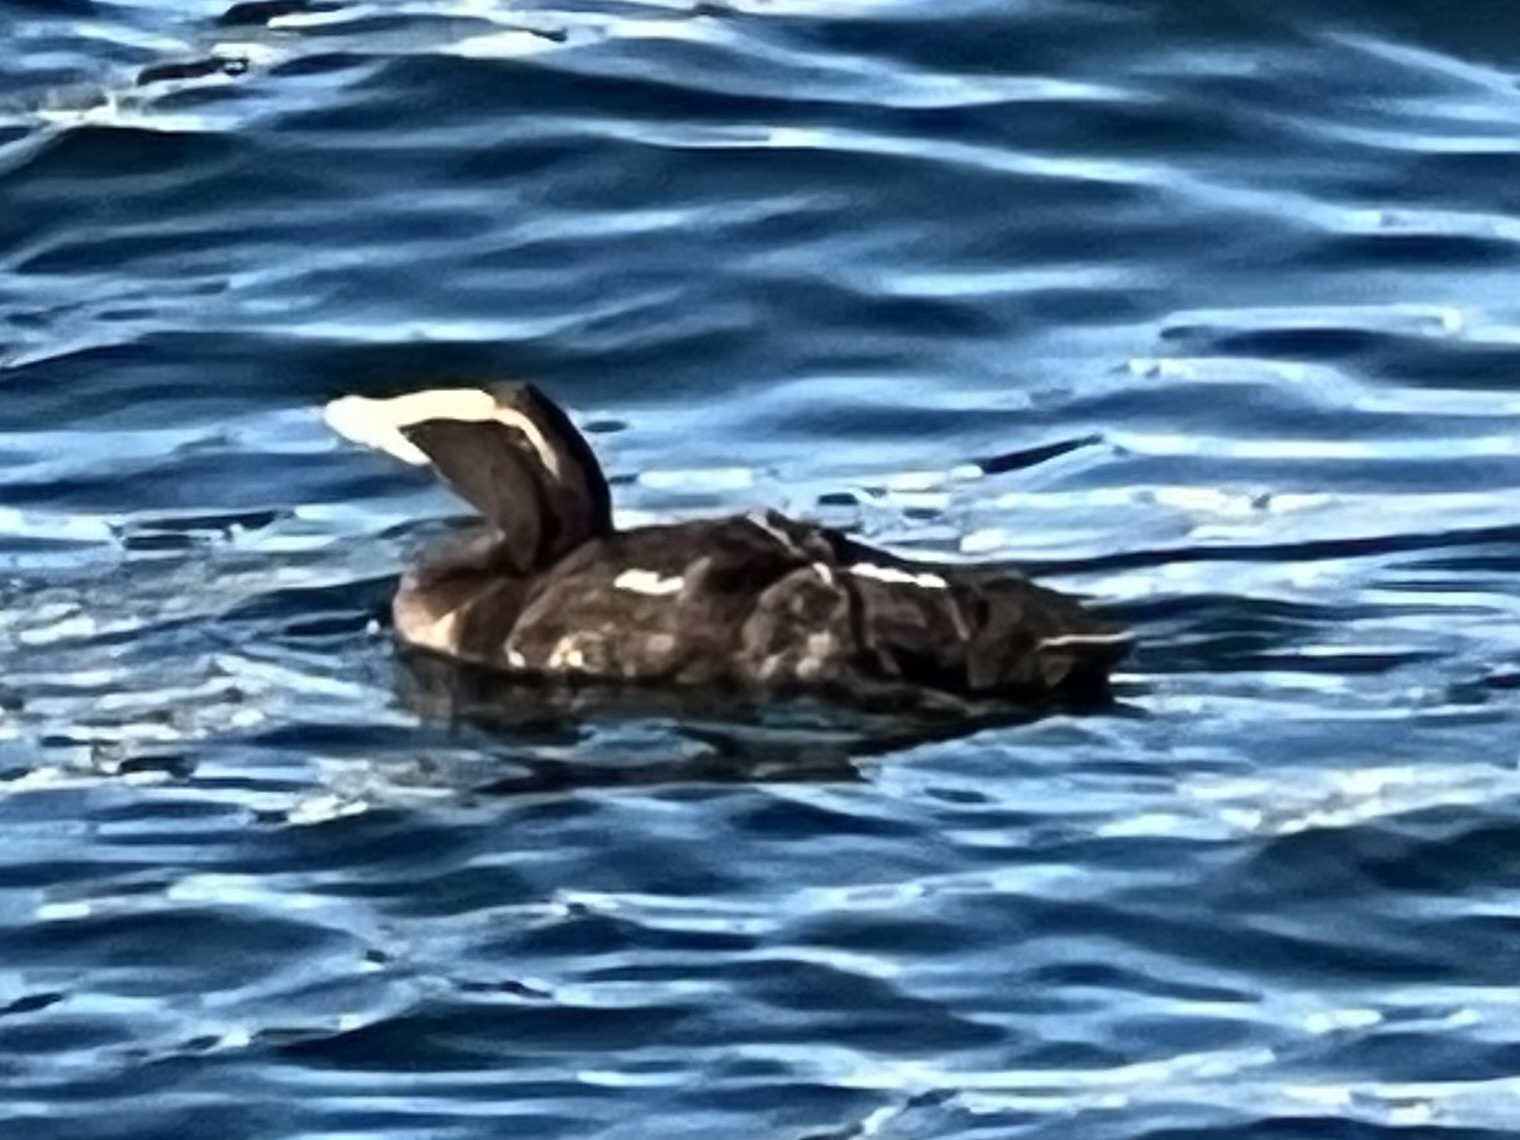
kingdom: Animalia
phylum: Chordata
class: Aves
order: Anseriformes
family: Anatidae
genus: Somateria
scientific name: Somateria mollissima
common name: Common eider
